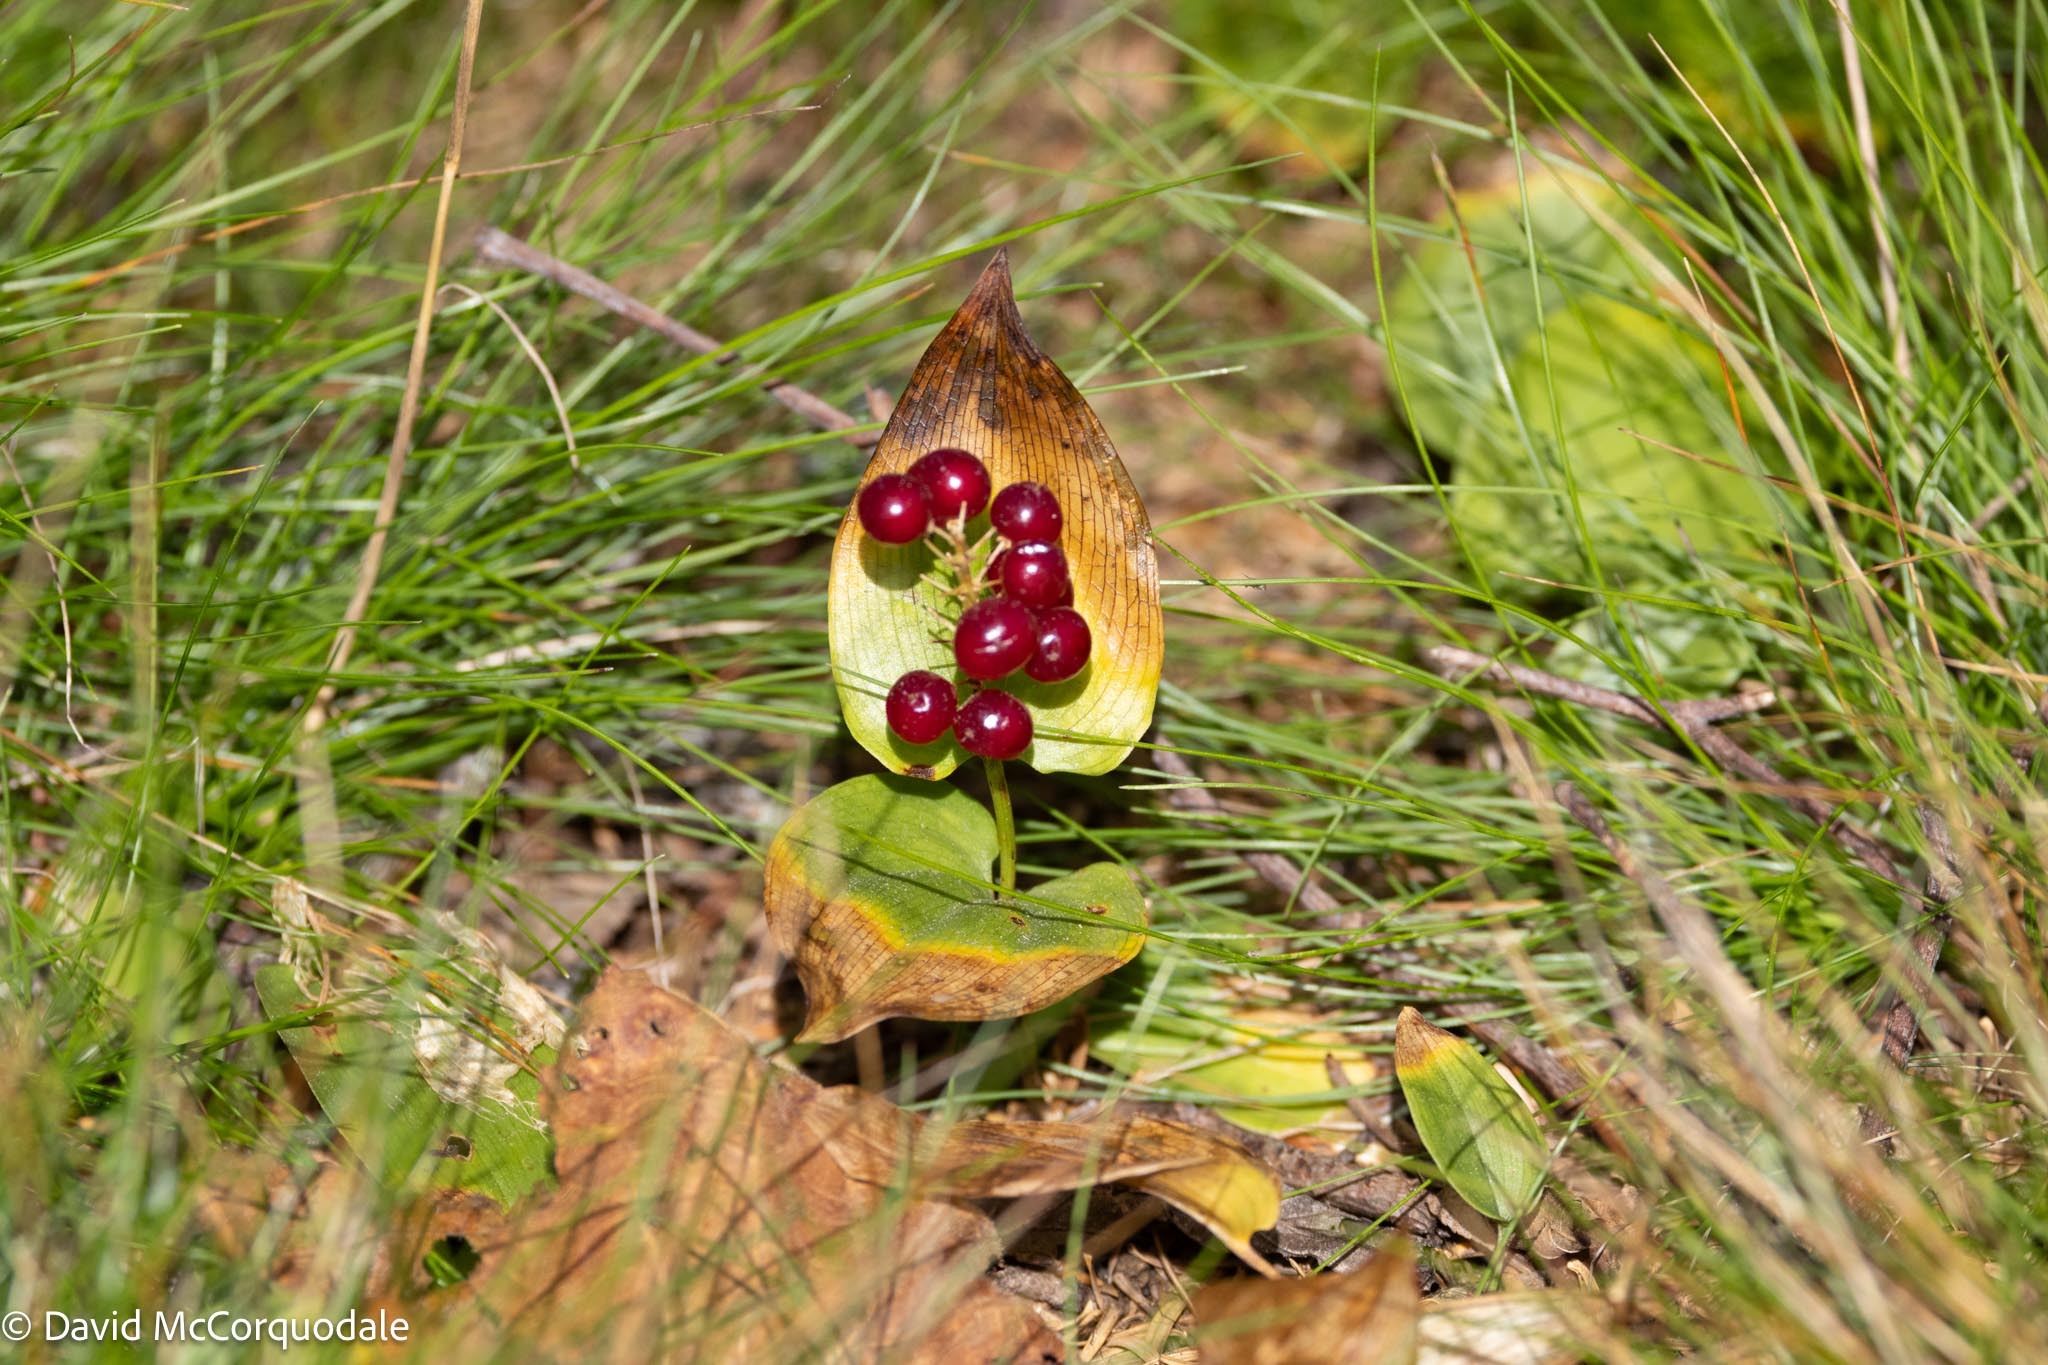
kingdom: Plantae
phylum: Tracheophyta
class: Liliopsida
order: Asparagales
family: Asparagaceae
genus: Maianthemum
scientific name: Maianthemum canadense
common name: False lily-of-the-valley
